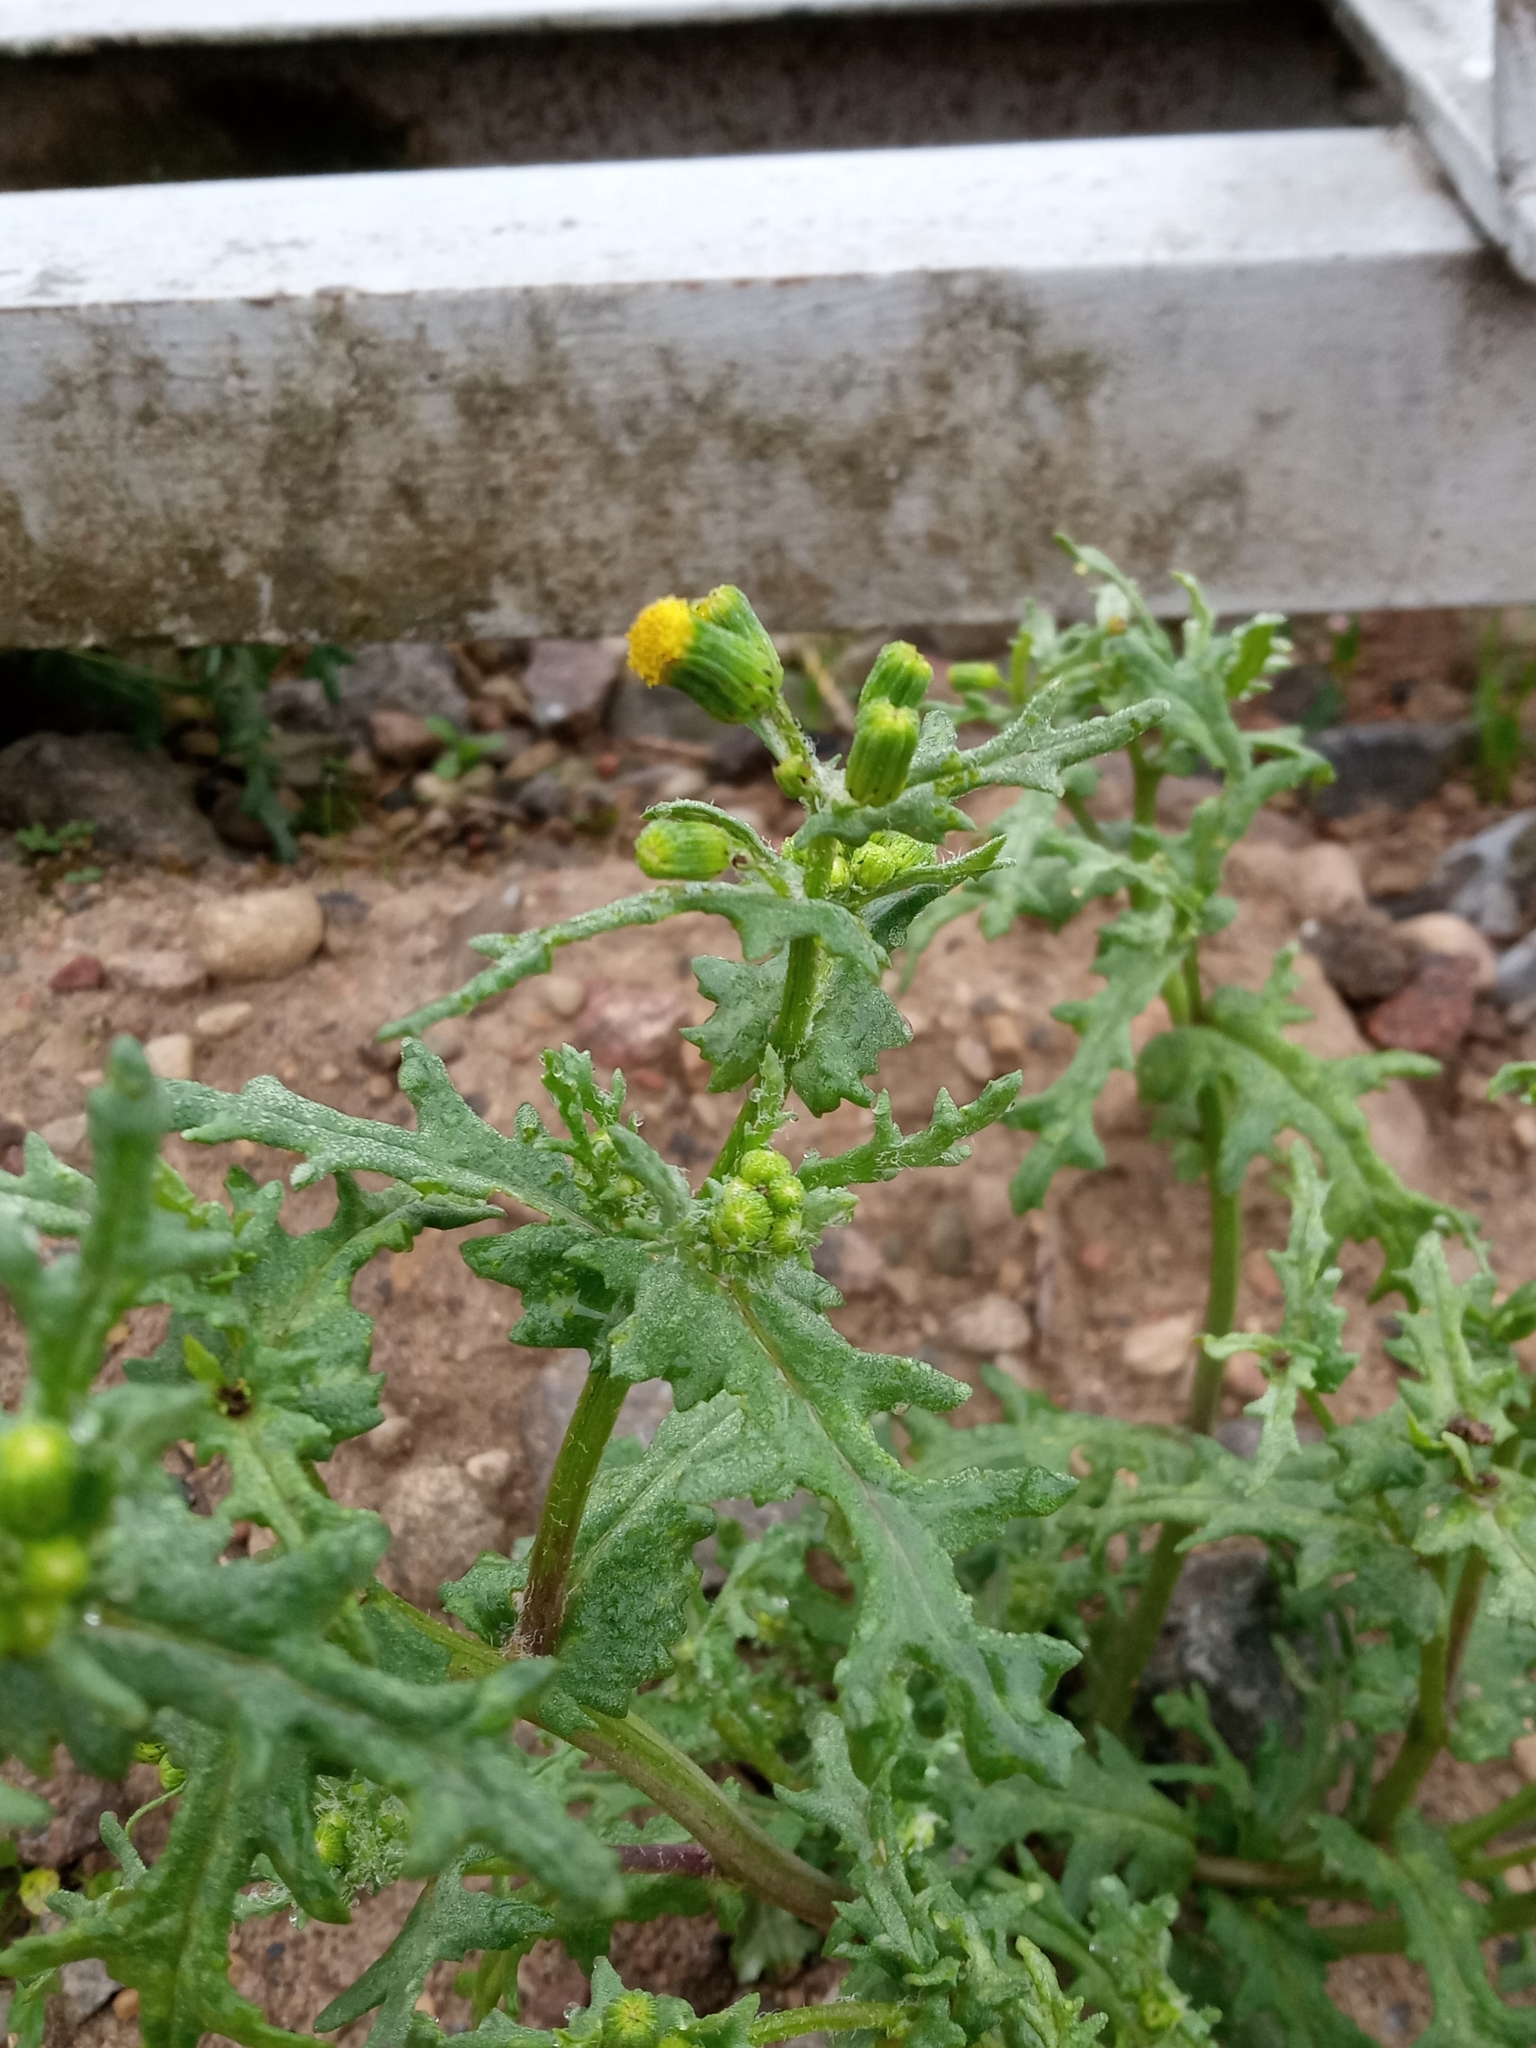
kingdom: Plantae
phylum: Tracheophyta
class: Magnoliopsida
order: Asterales
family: Asteraceae
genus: Senecio
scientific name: Senecio vulgaris
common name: Old-man-in-the-spring
